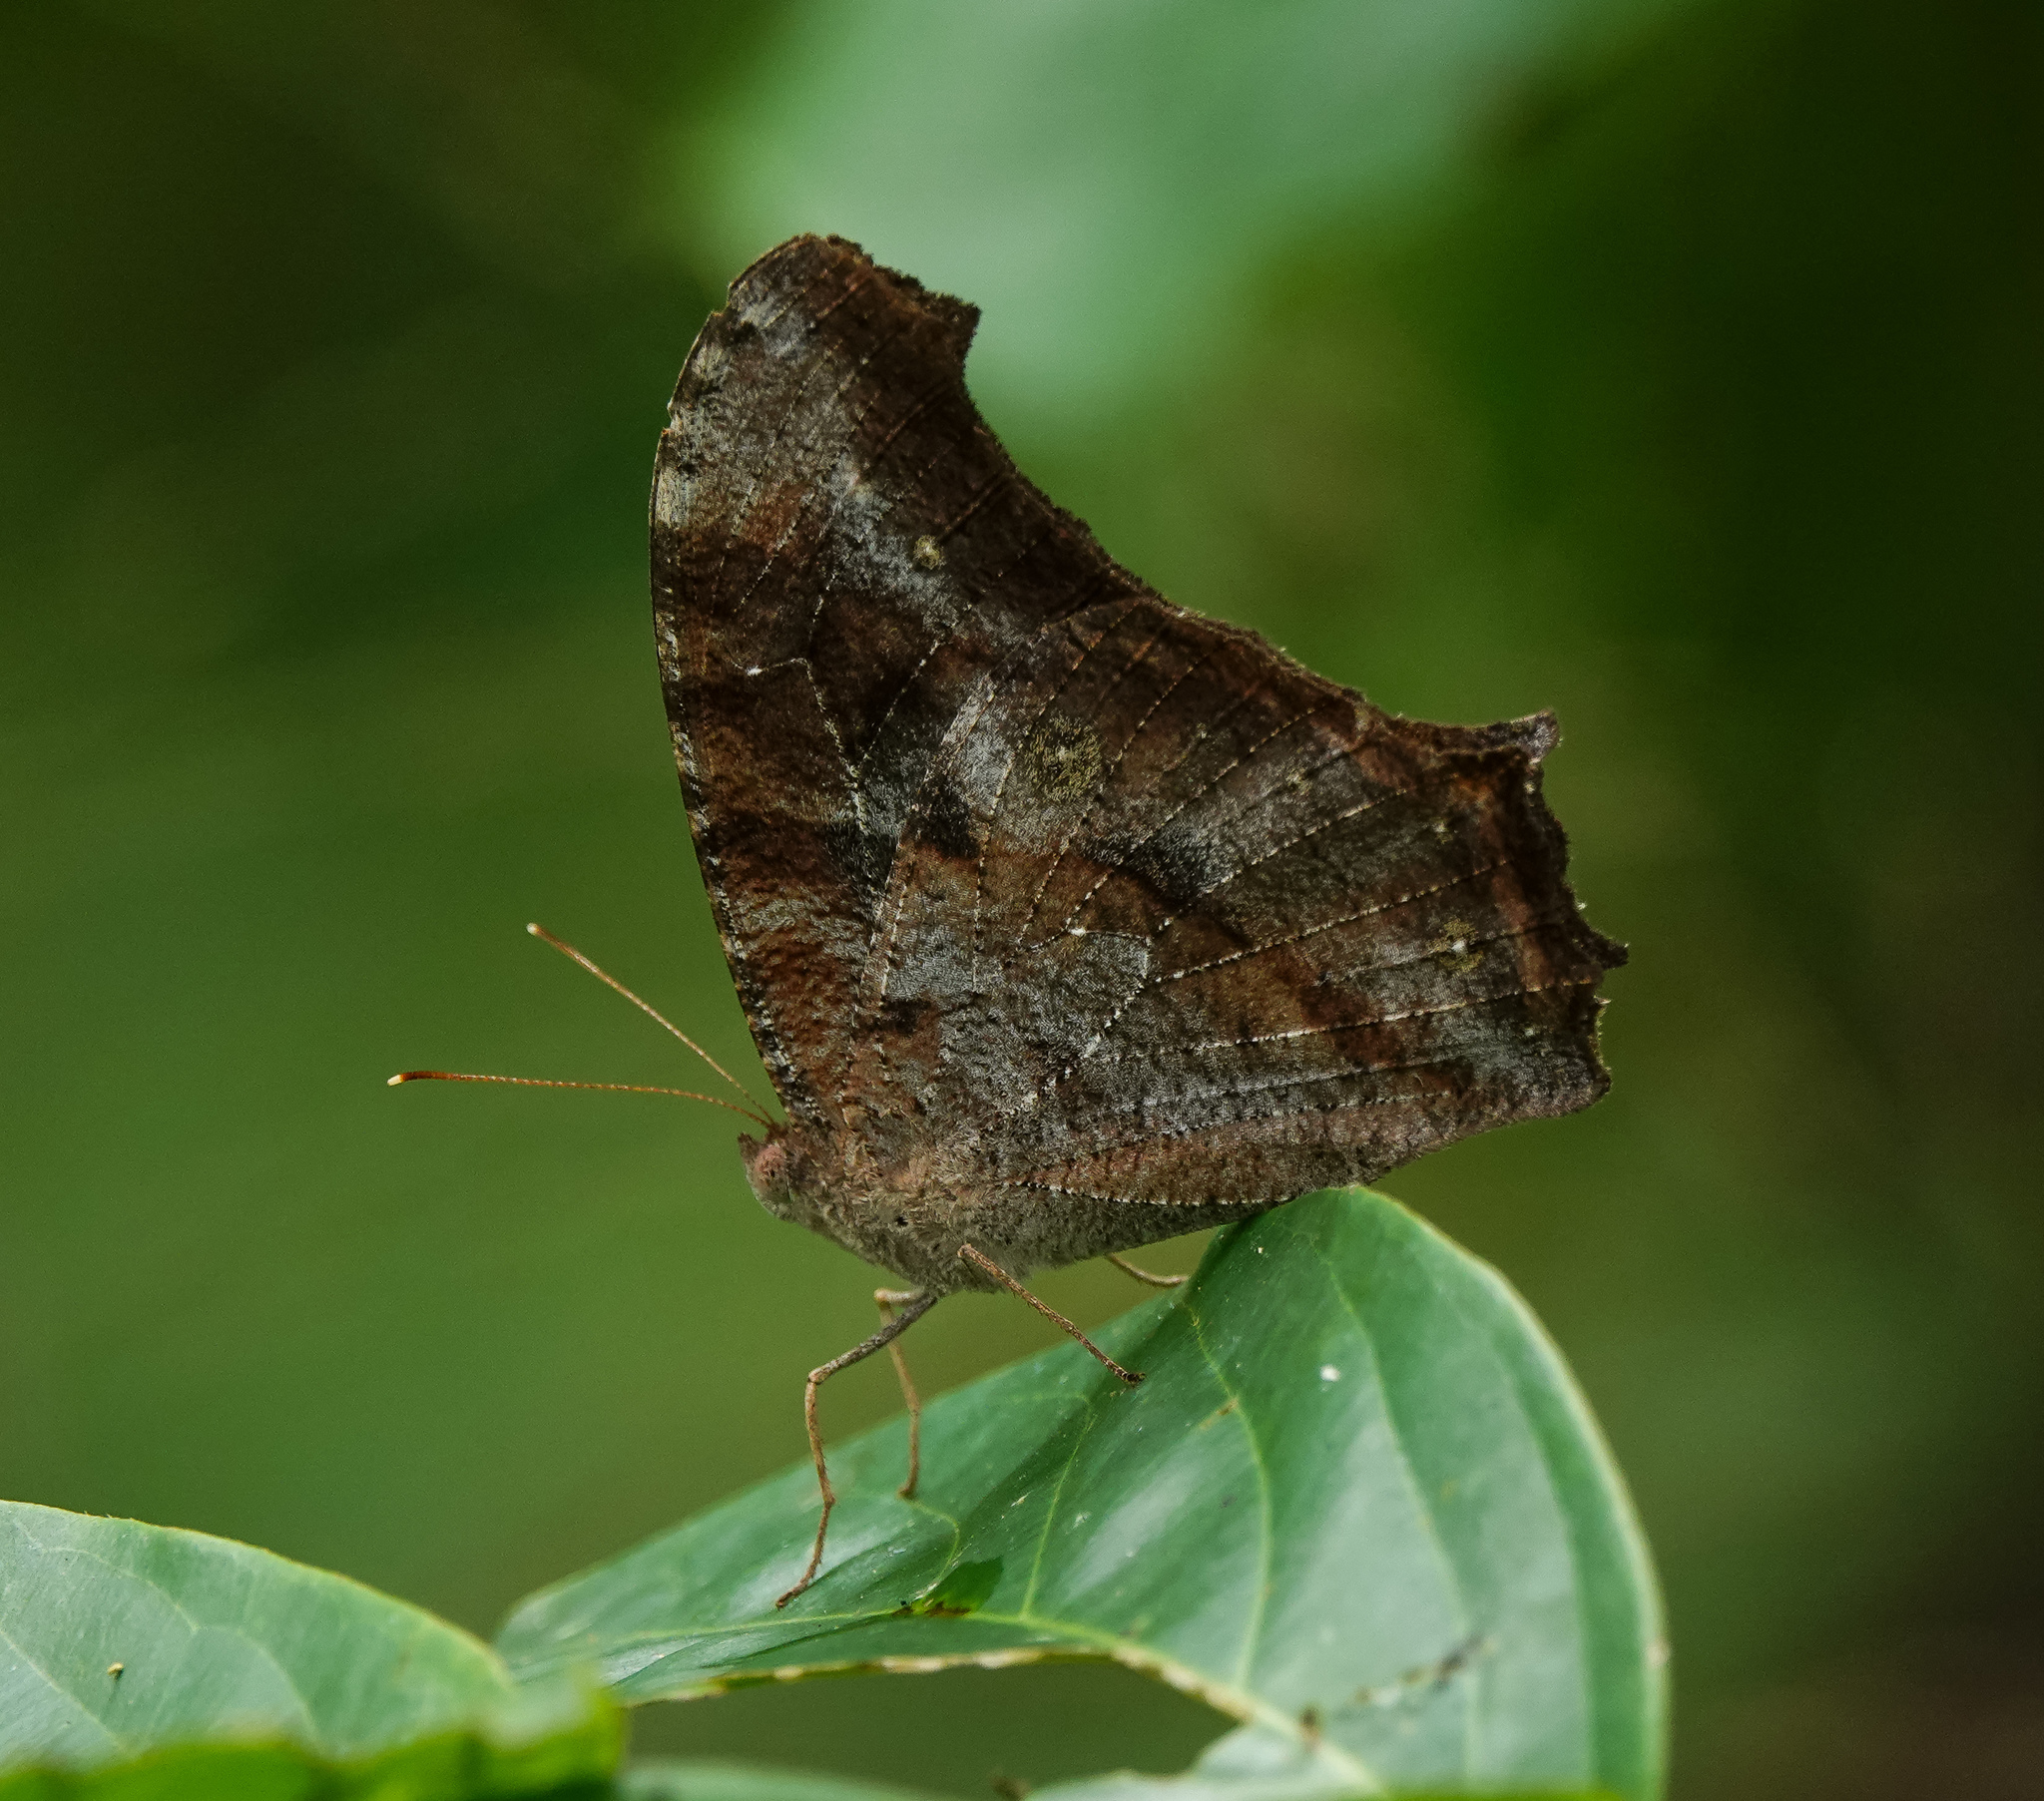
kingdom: Animalia
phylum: Arthropoda
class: Insecta
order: Lepidoptera
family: Nymphalidae
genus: Melanitis
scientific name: Melanitis leda
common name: Twilight brown
